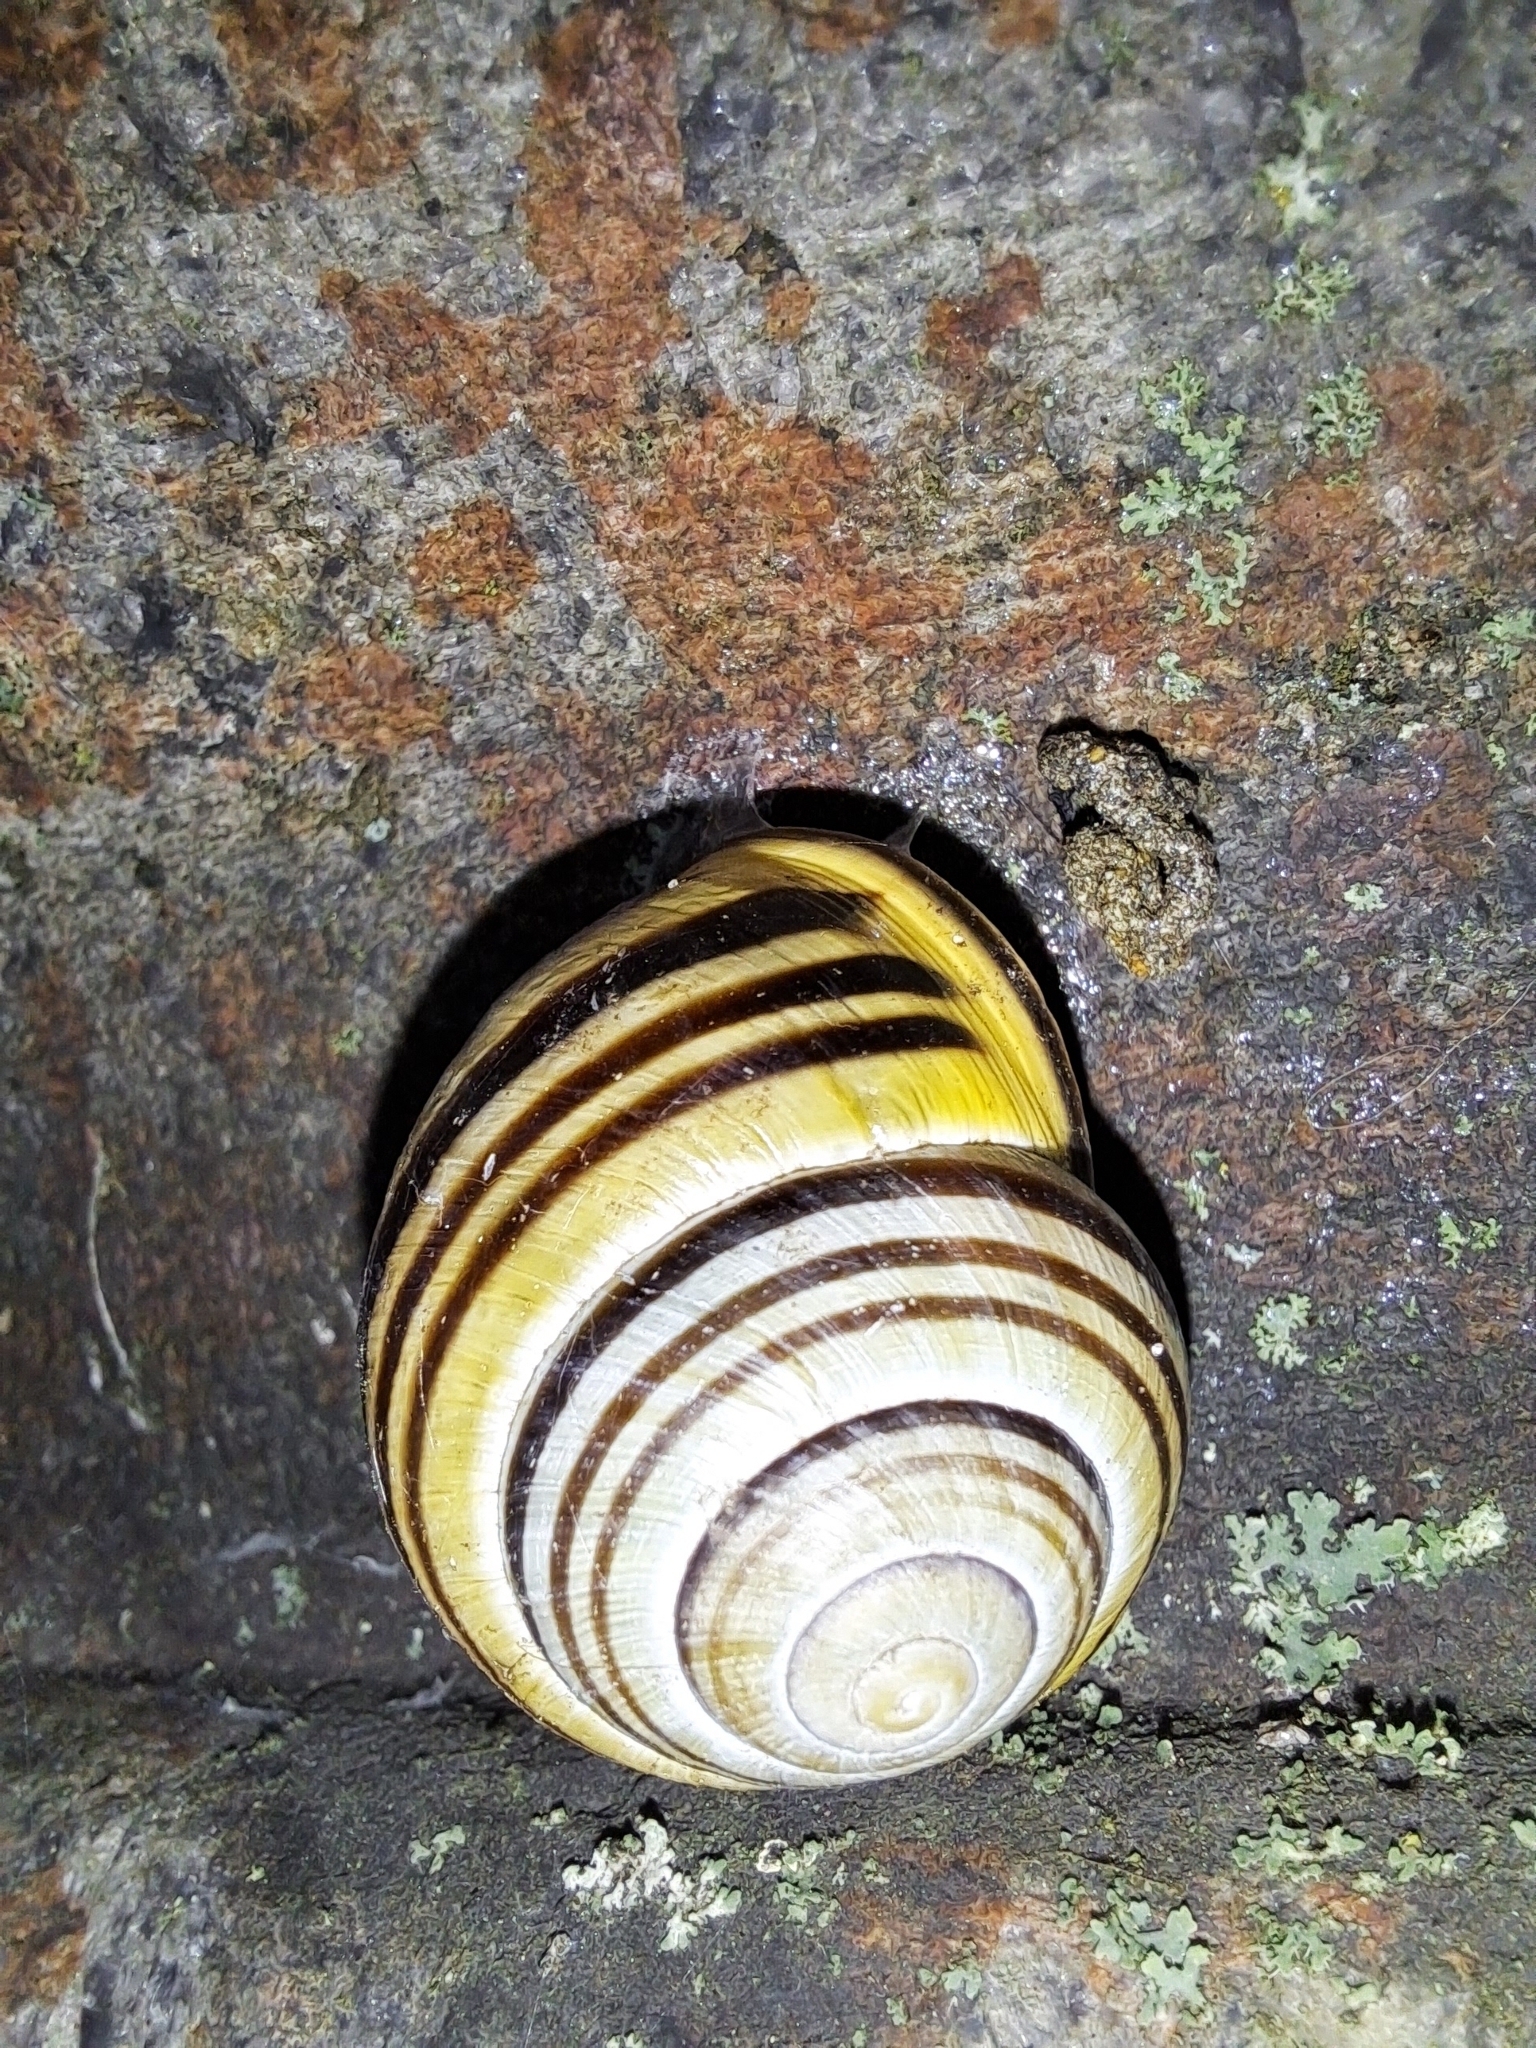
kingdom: Animalia
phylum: Mollusca
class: Gastropoda
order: Stylommatophora
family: Helicidae
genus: Cepaea
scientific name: Cepaea nemoralis
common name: Grovesnail
